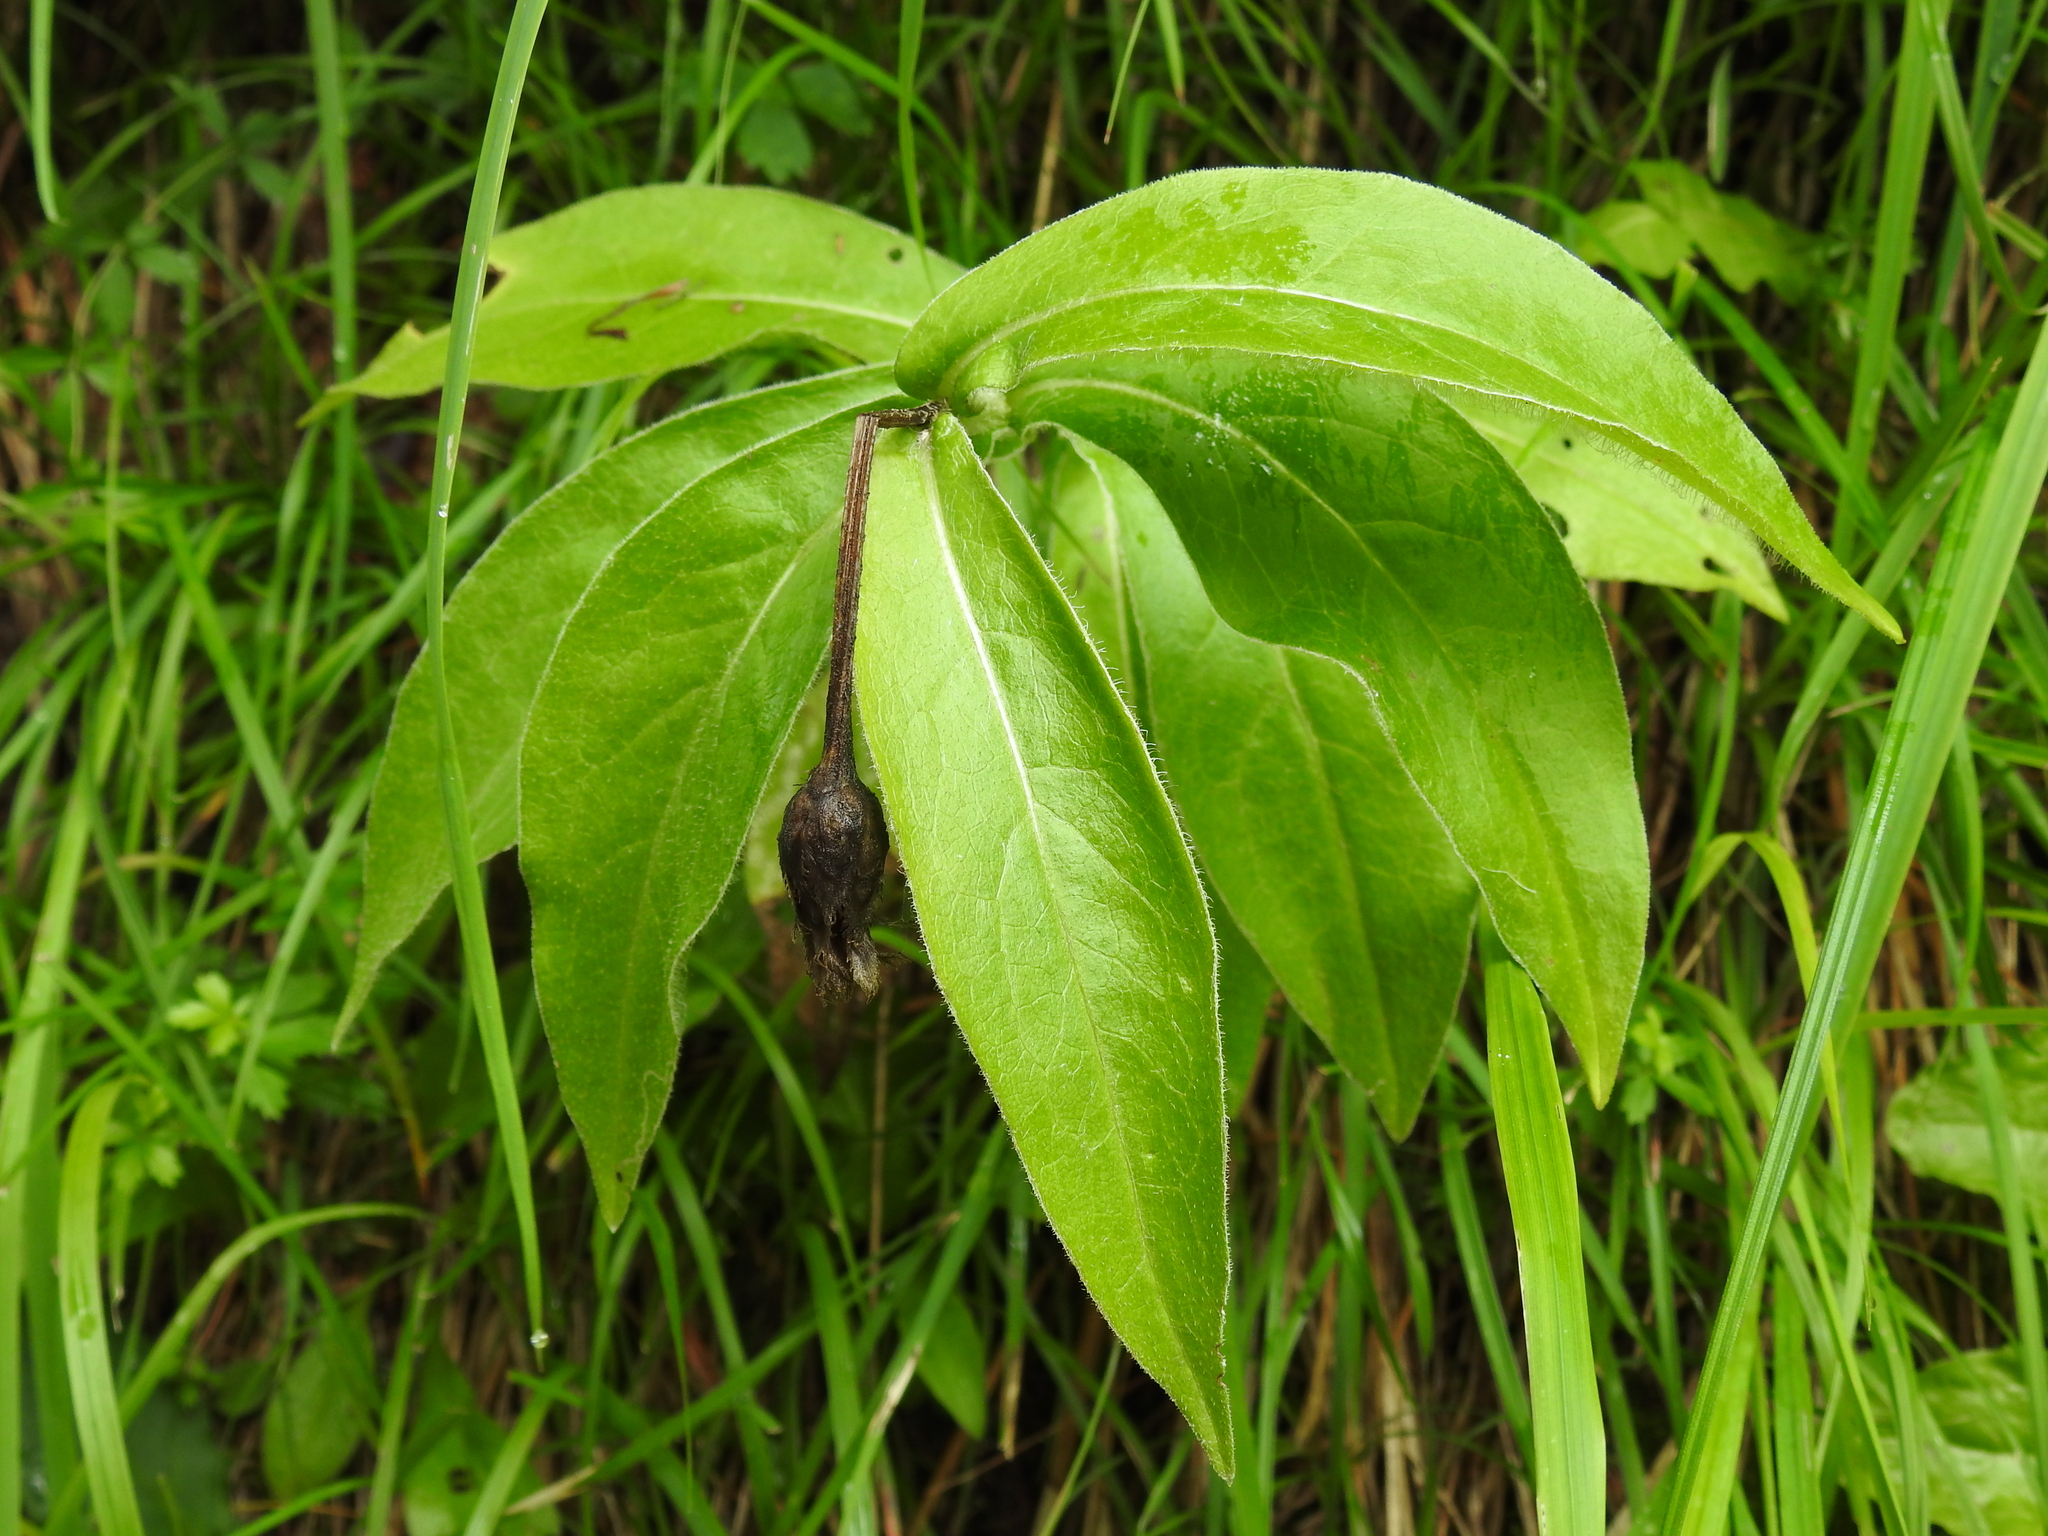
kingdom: Plantae
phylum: Tracheophyta
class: Magnoliopsida
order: Asterales
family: Asteraceae
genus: Centaurea
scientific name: Centaurea montana
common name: Perennial cornflower
